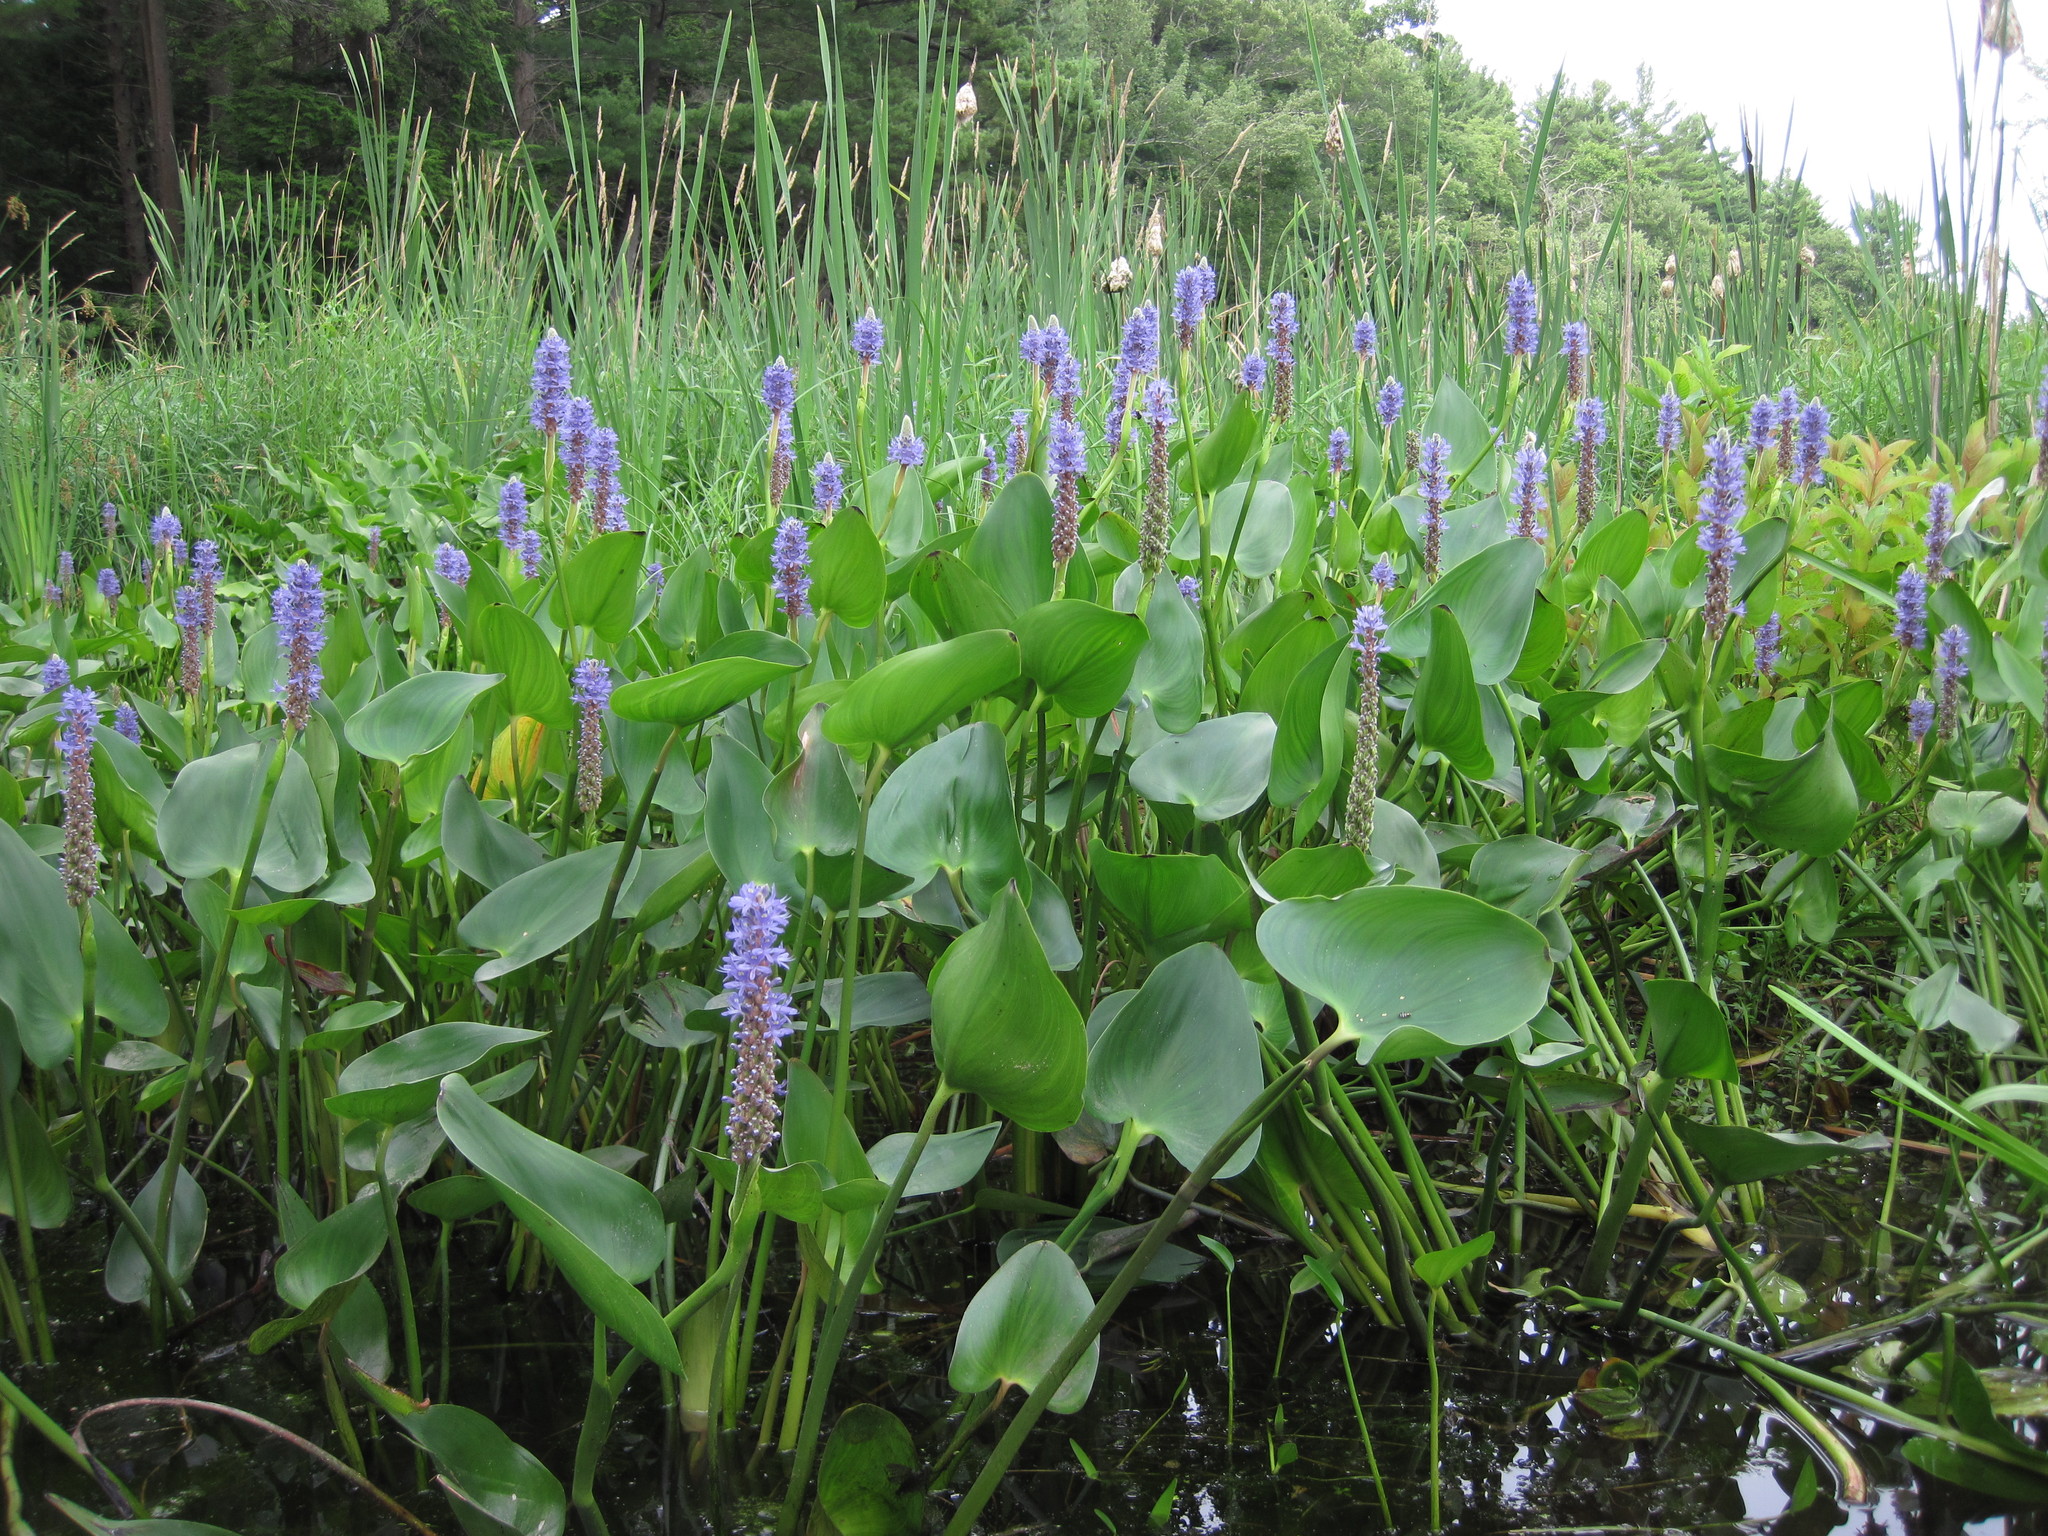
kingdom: Plantae
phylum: Tracheophyta
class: Liliopsida
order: Commelinales
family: Pontederiaceae
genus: Pontederia
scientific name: Pontederia cordata
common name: Pickerelweed
